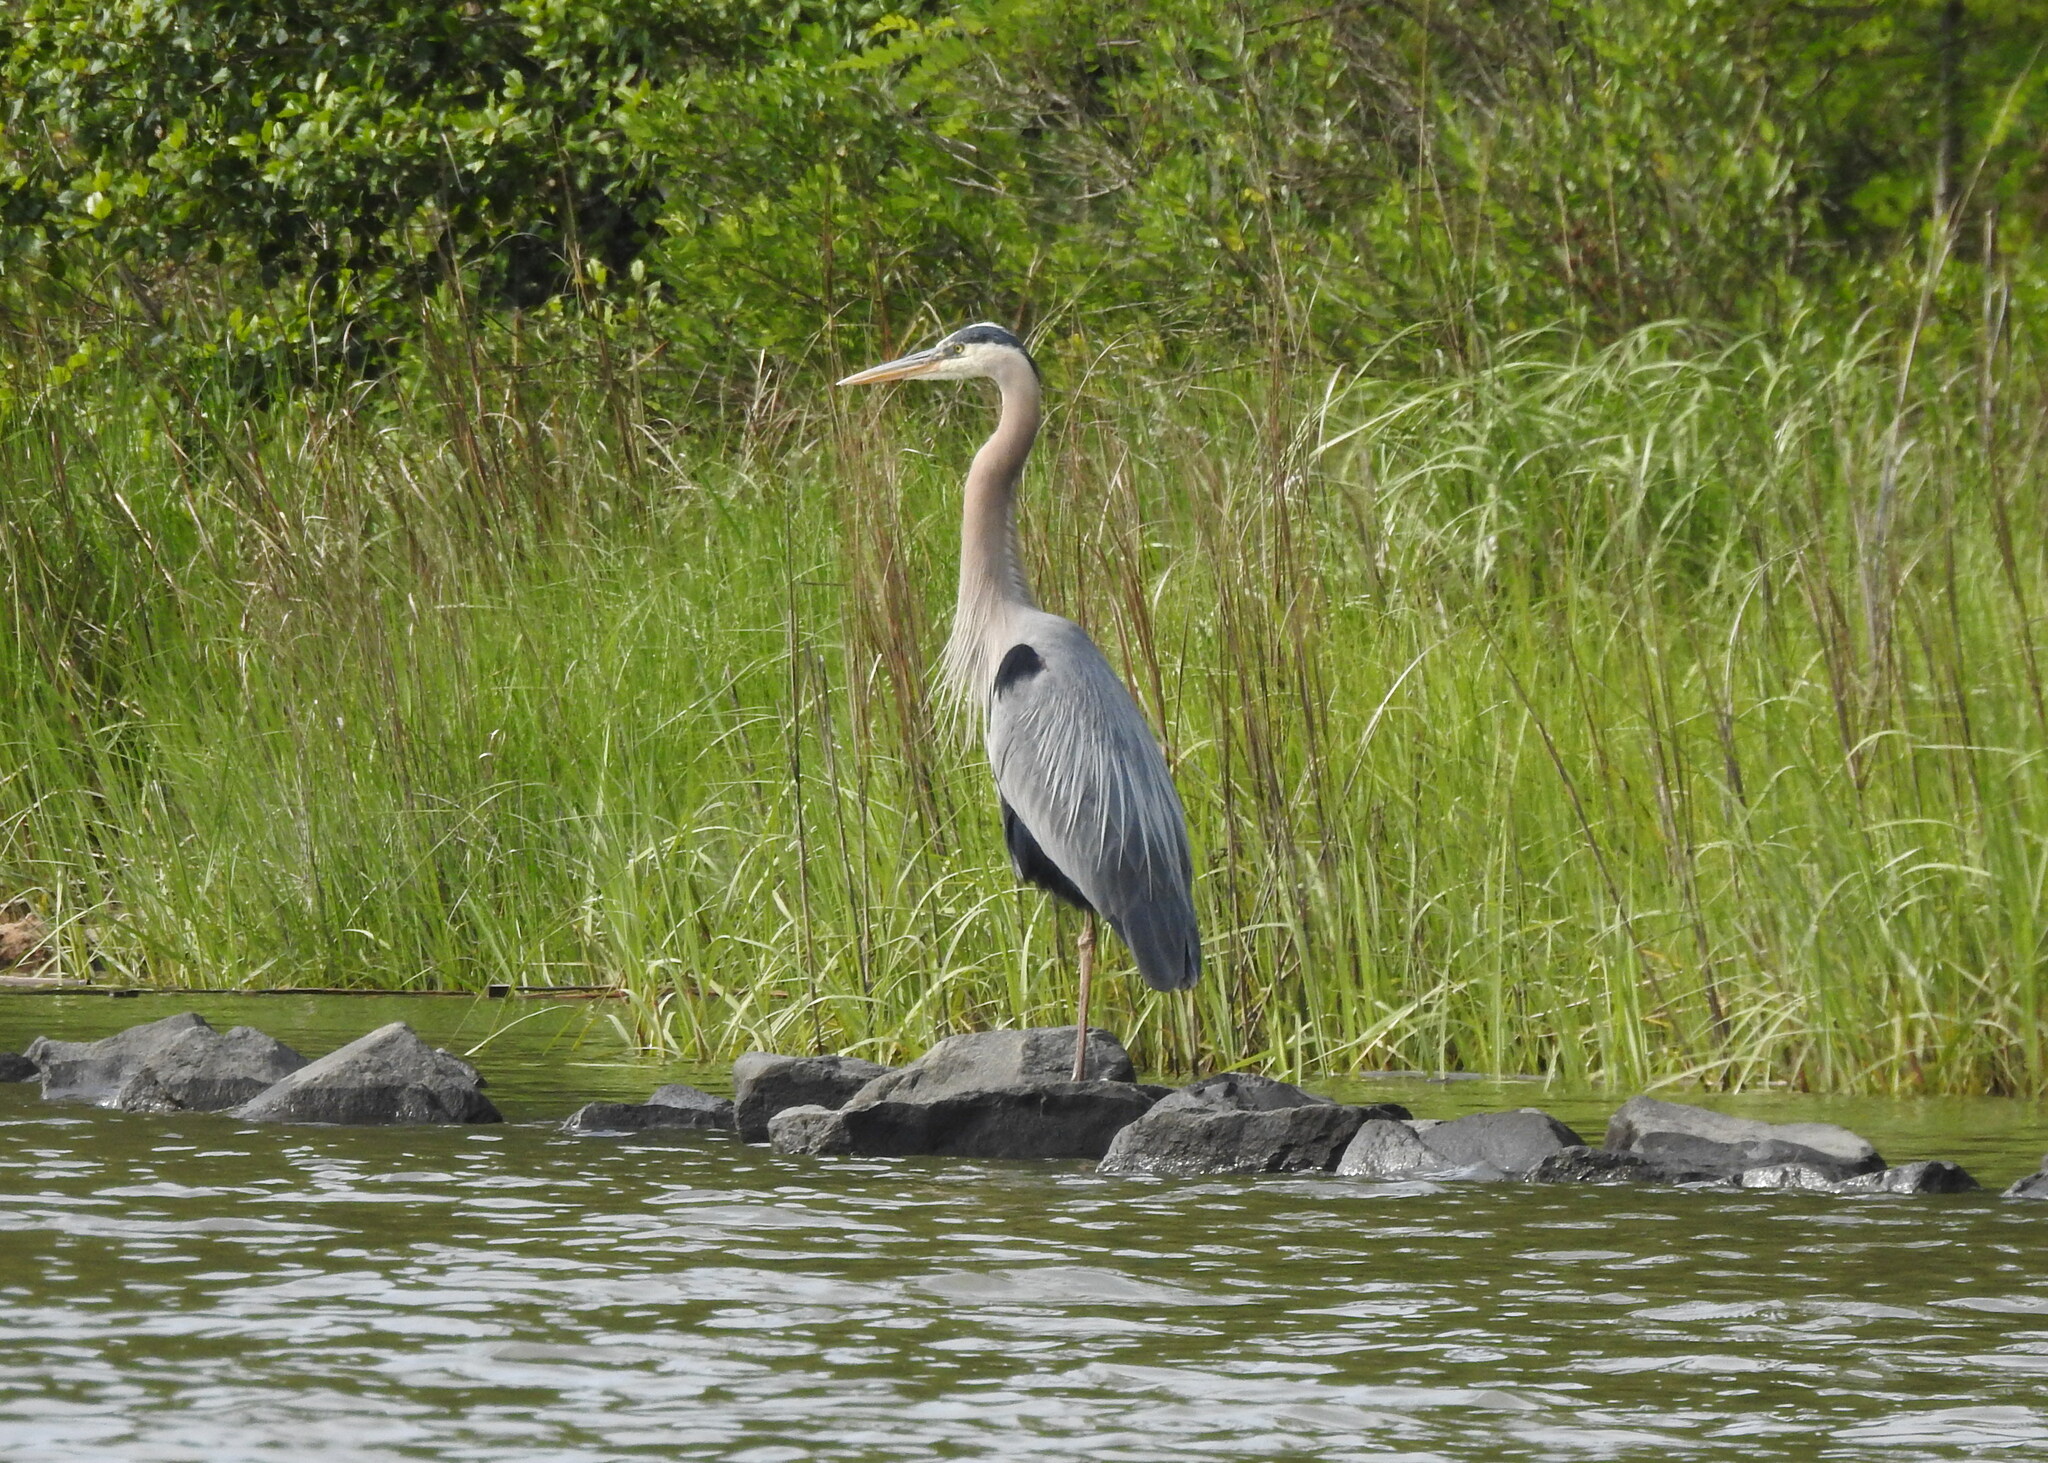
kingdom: Animalia
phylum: Chordata
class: Aves
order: Pelecaniformes
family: Ardeidae
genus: Ardea
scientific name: Ardea herodias
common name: Great blue heron
